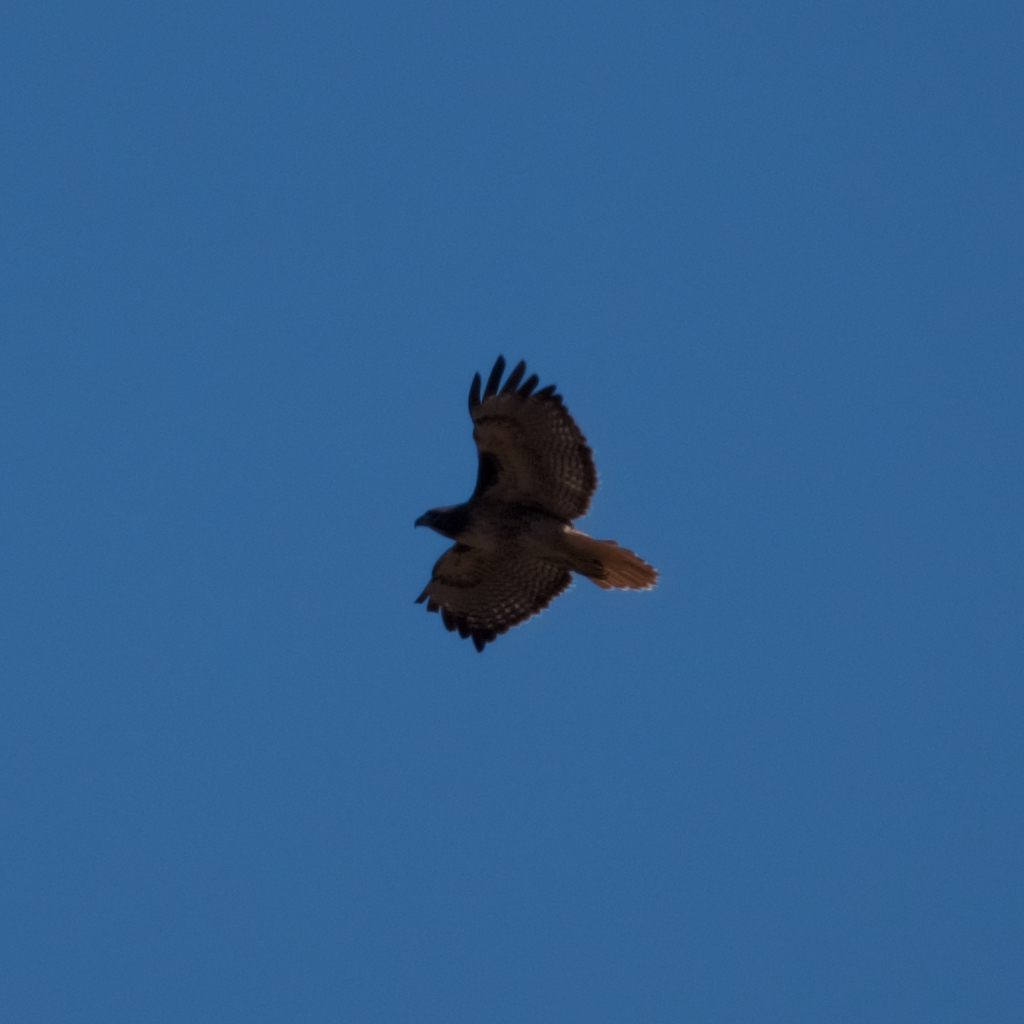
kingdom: Animalia
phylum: Chordata
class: Aves
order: Accipitriformes
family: Accipitridae
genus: Buteo
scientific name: Buteo jamaicensis
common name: Red-tailed hawk
